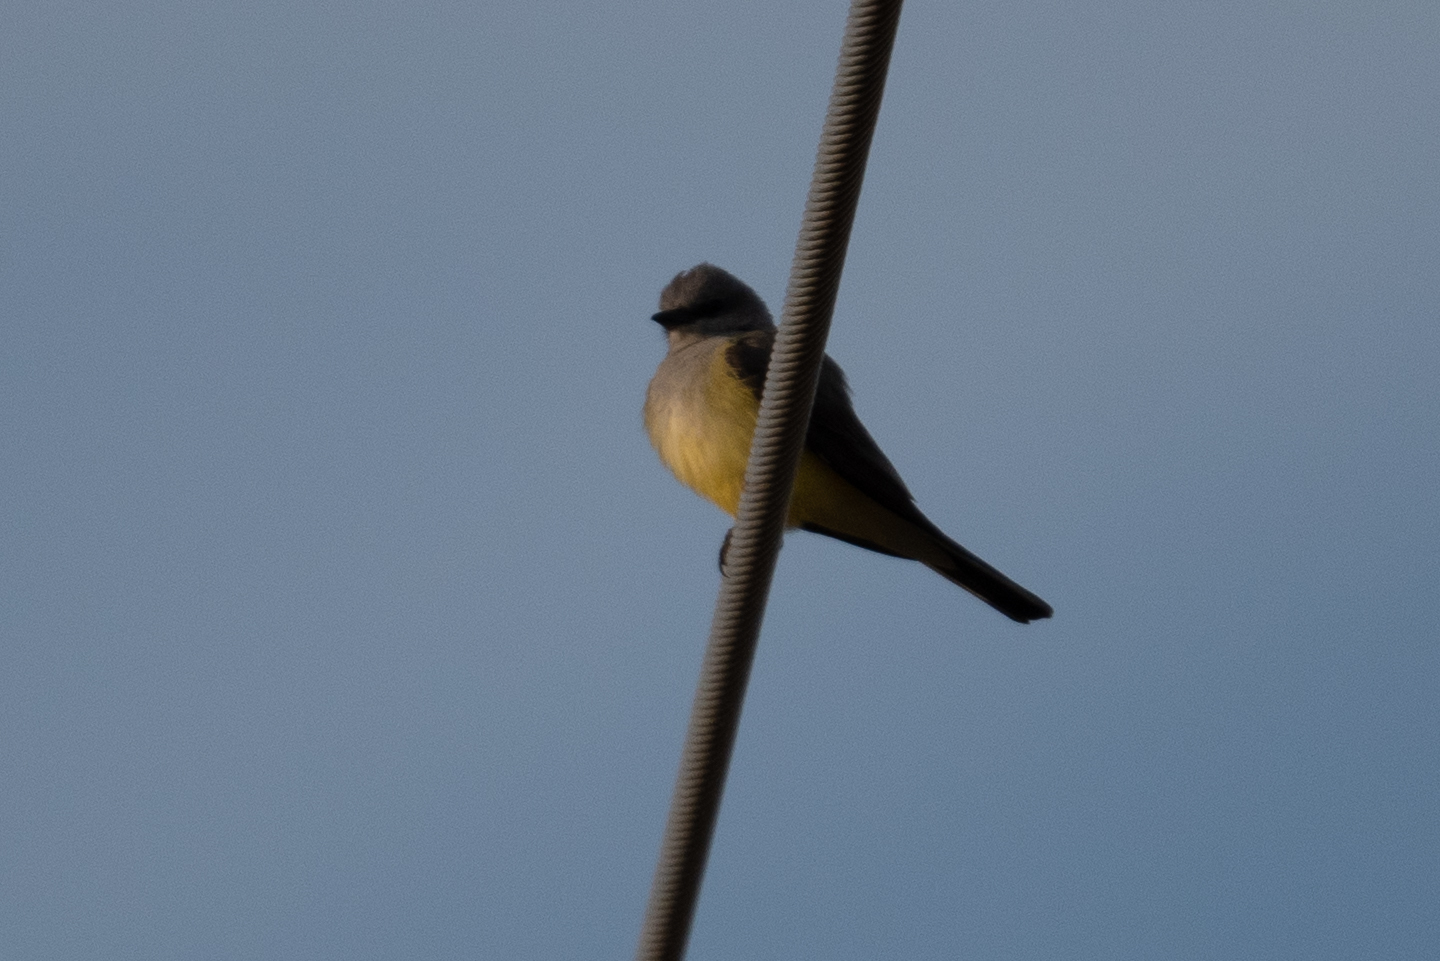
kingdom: Animalia
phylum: Chordata
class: Aves
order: Passeriformes
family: Tyrannidae
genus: Tyrannus
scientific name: Tyrannus verticalis
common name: Western kingbird
